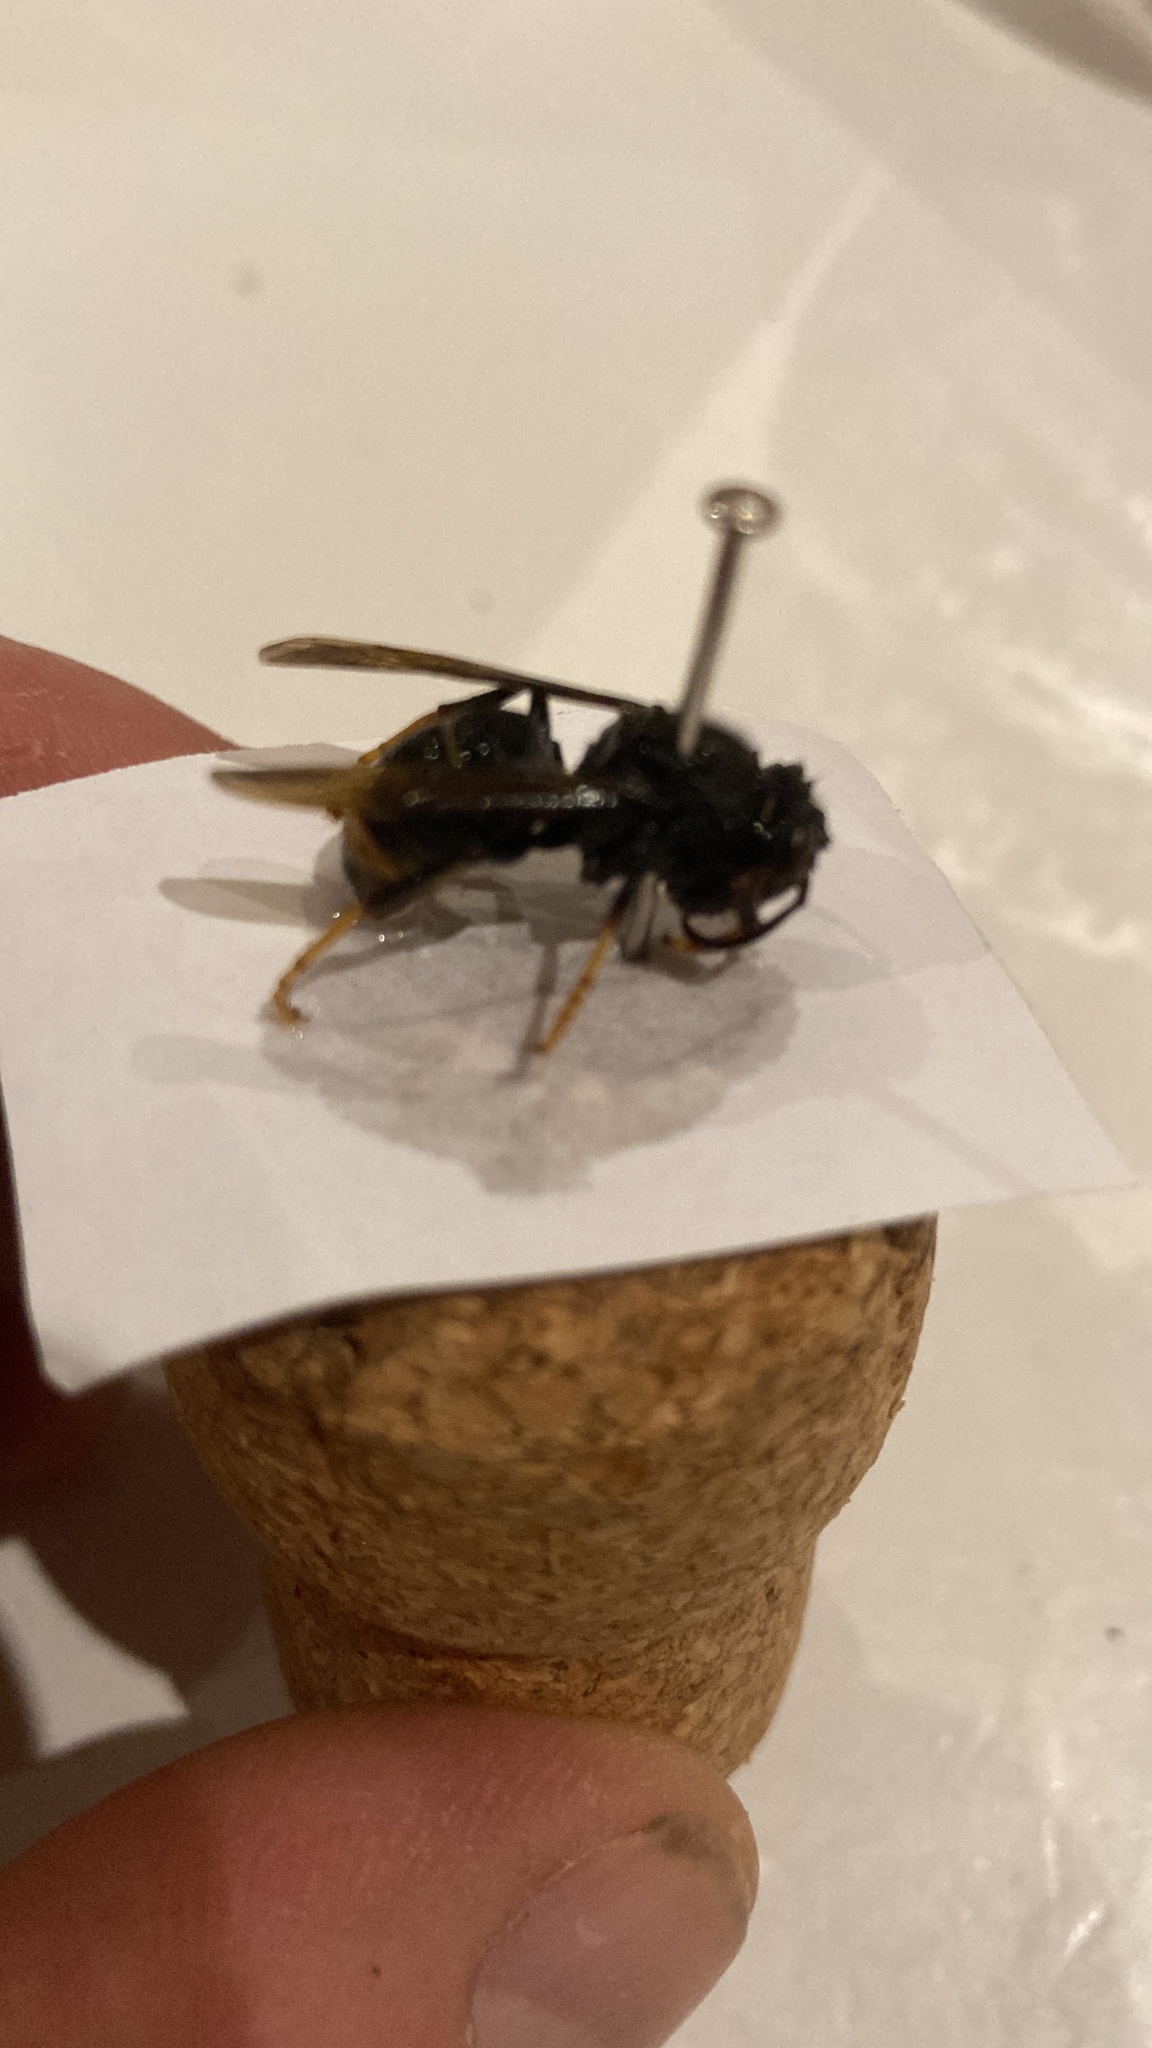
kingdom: Animalia
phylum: Arthropoda
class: Insecta
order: Hymenoptera
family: Vespidae
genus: Vespa
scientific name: Vespa velutina
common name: Asian hornet
